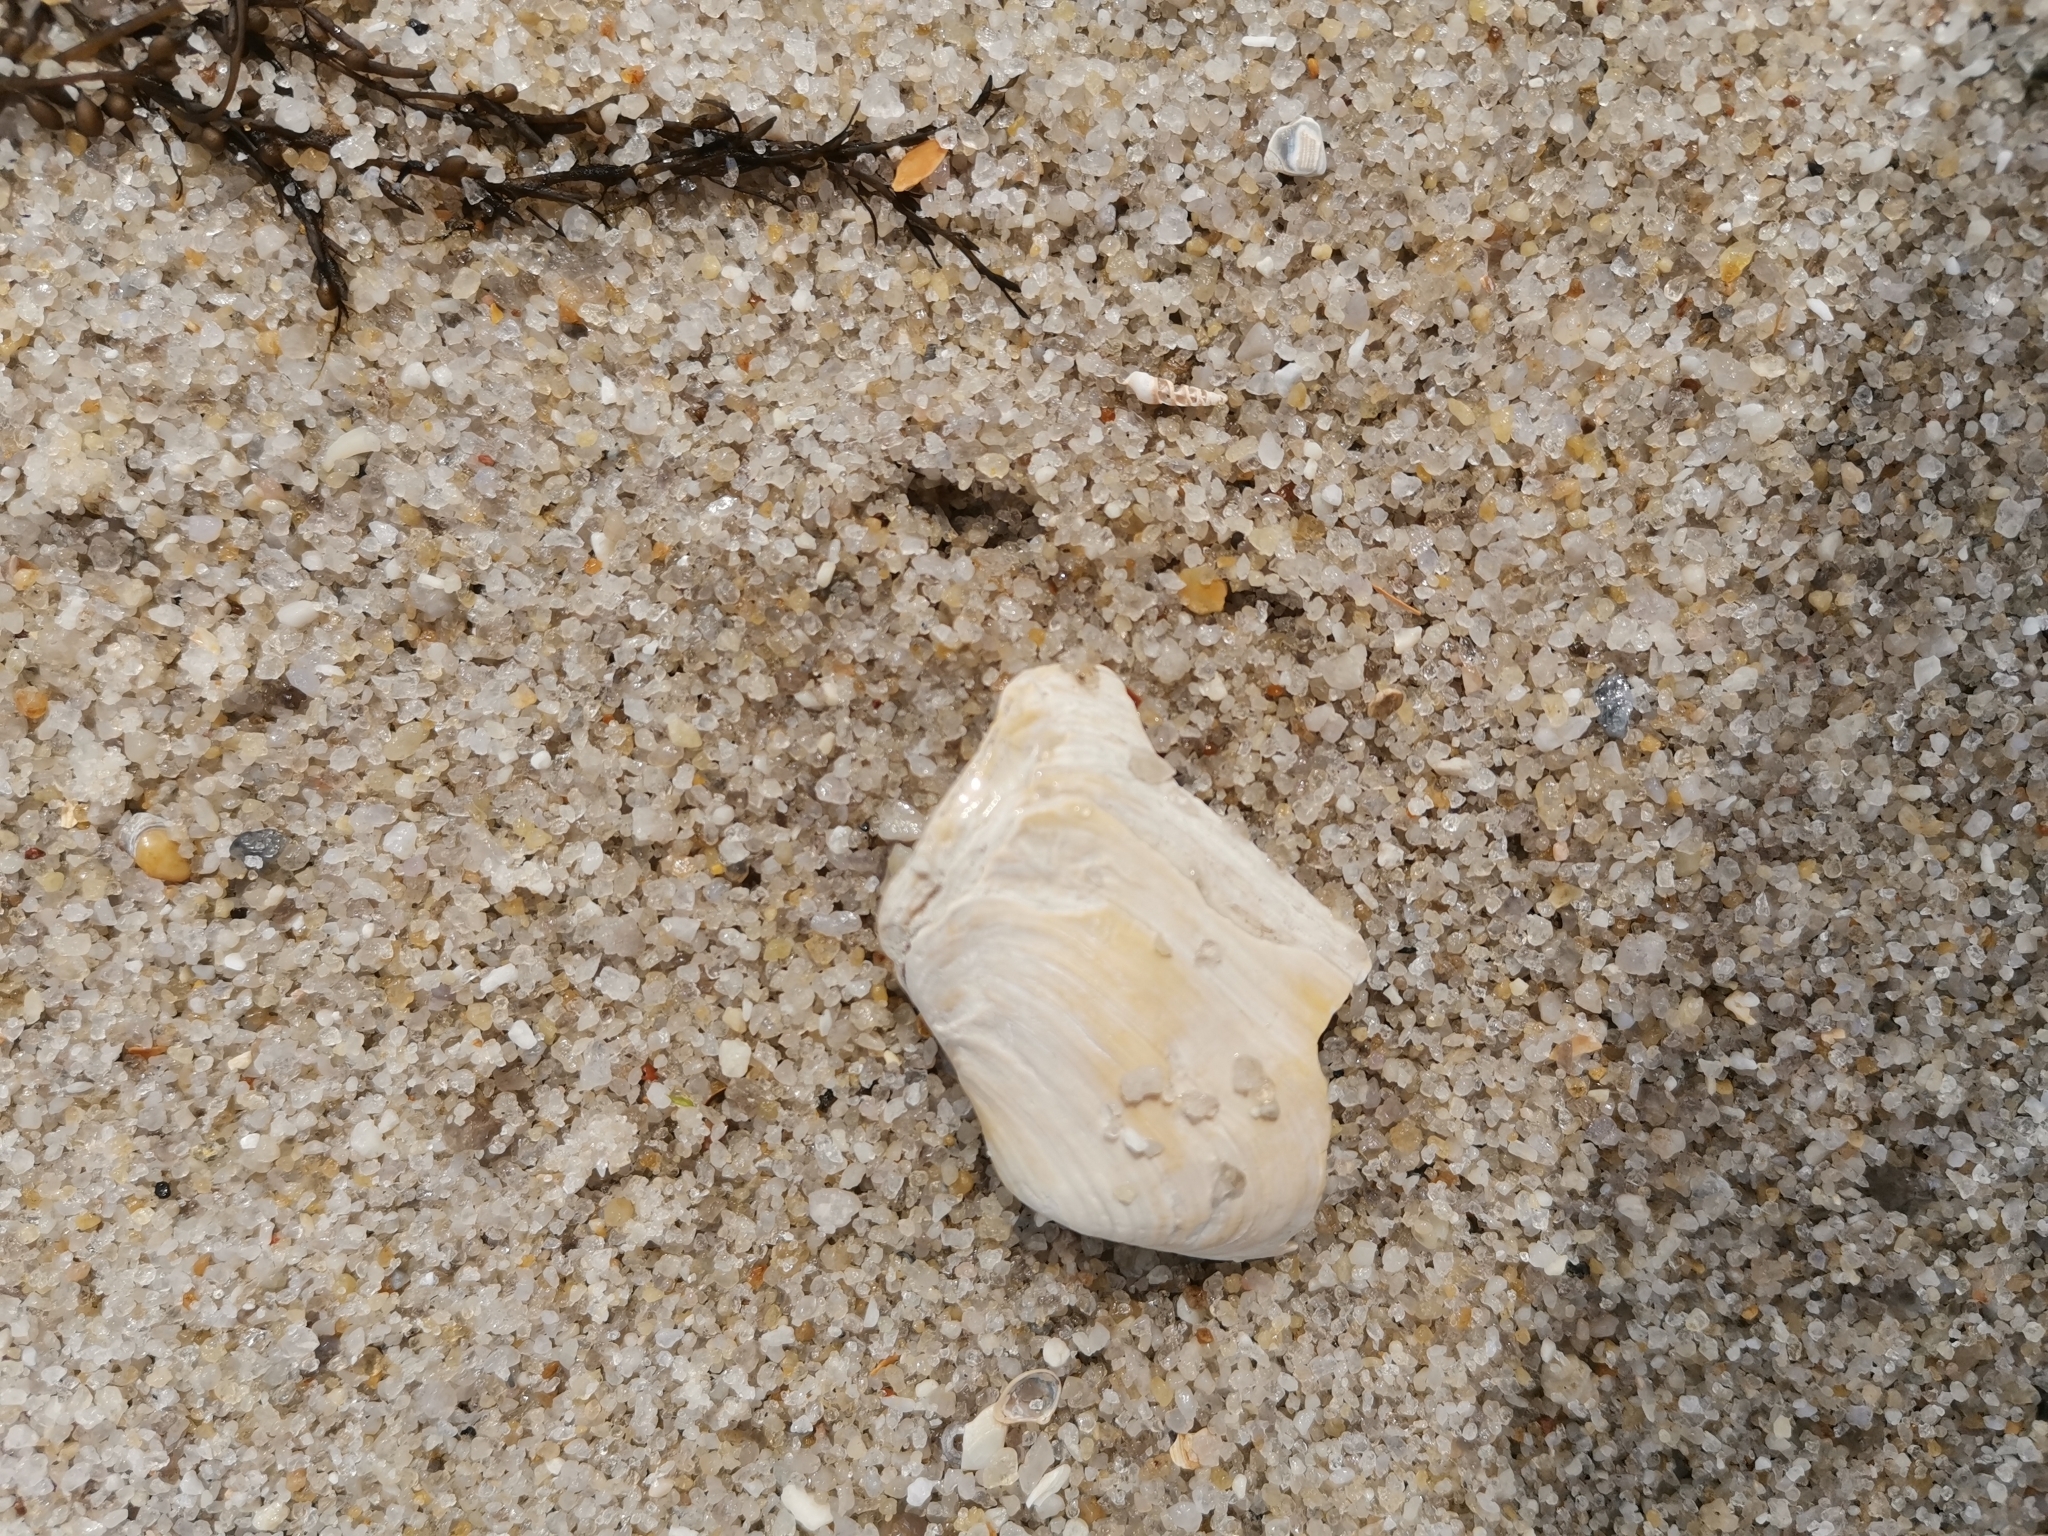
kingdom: Animalia
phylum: Mollusca
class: Bivalvia
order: Myida
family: Myidae
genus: Mya
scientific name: Mya truncata
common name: Blunt gaper
